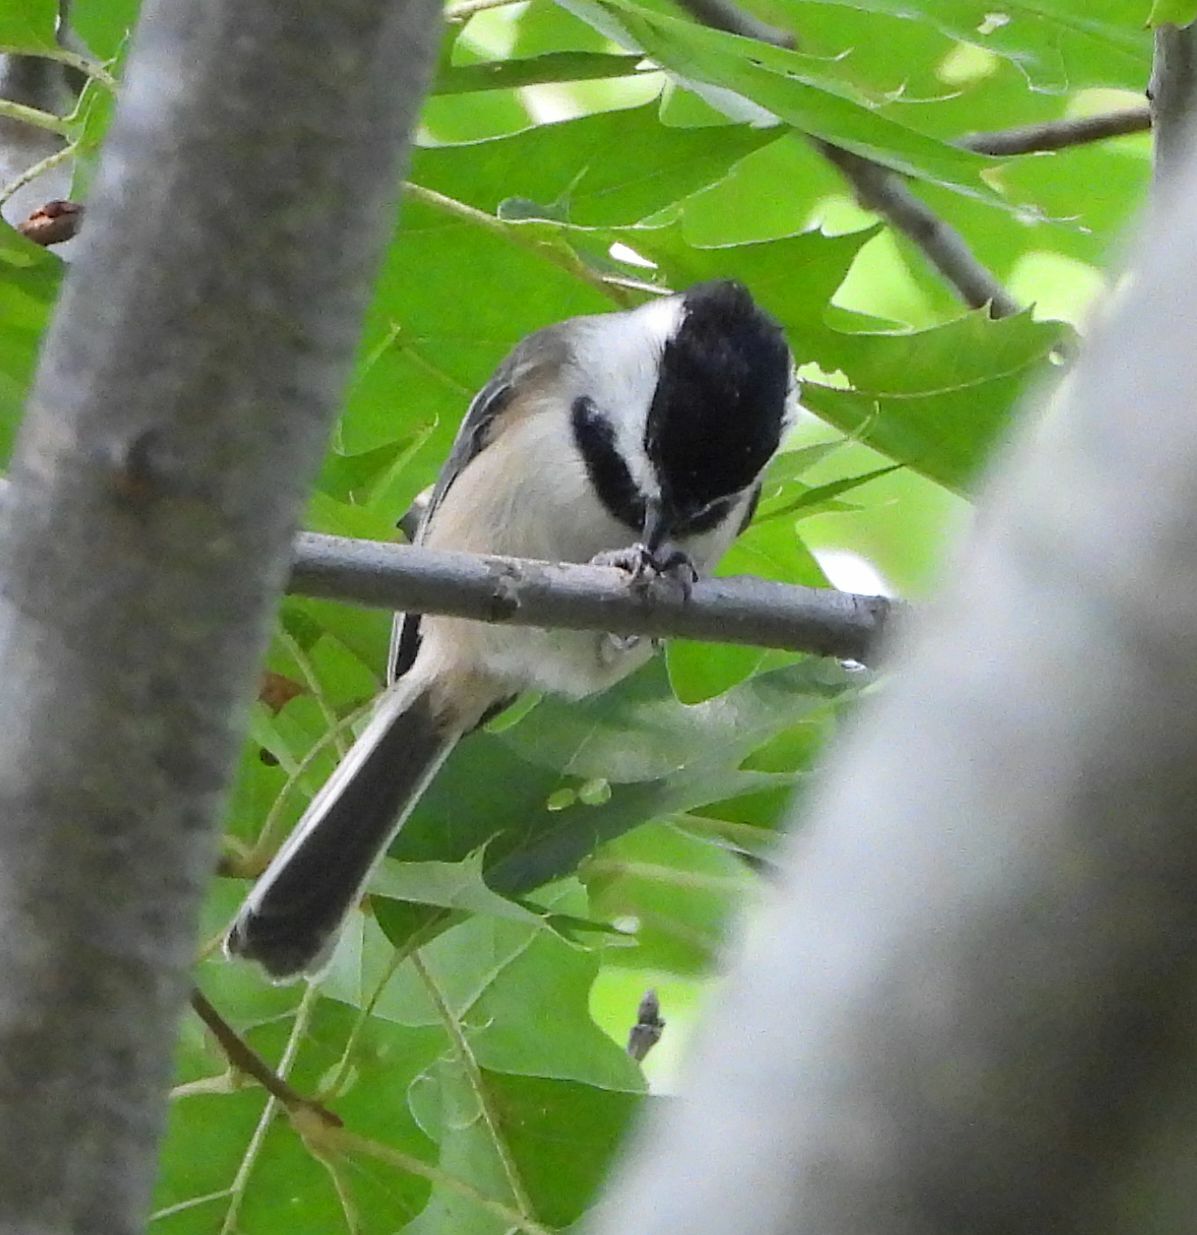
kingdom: Animalia
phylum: Chordata
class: Aves
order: Passeriformes
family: Paridae
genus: Poecile
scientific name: Poecile atricapillus
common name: Black-capped chickadee
